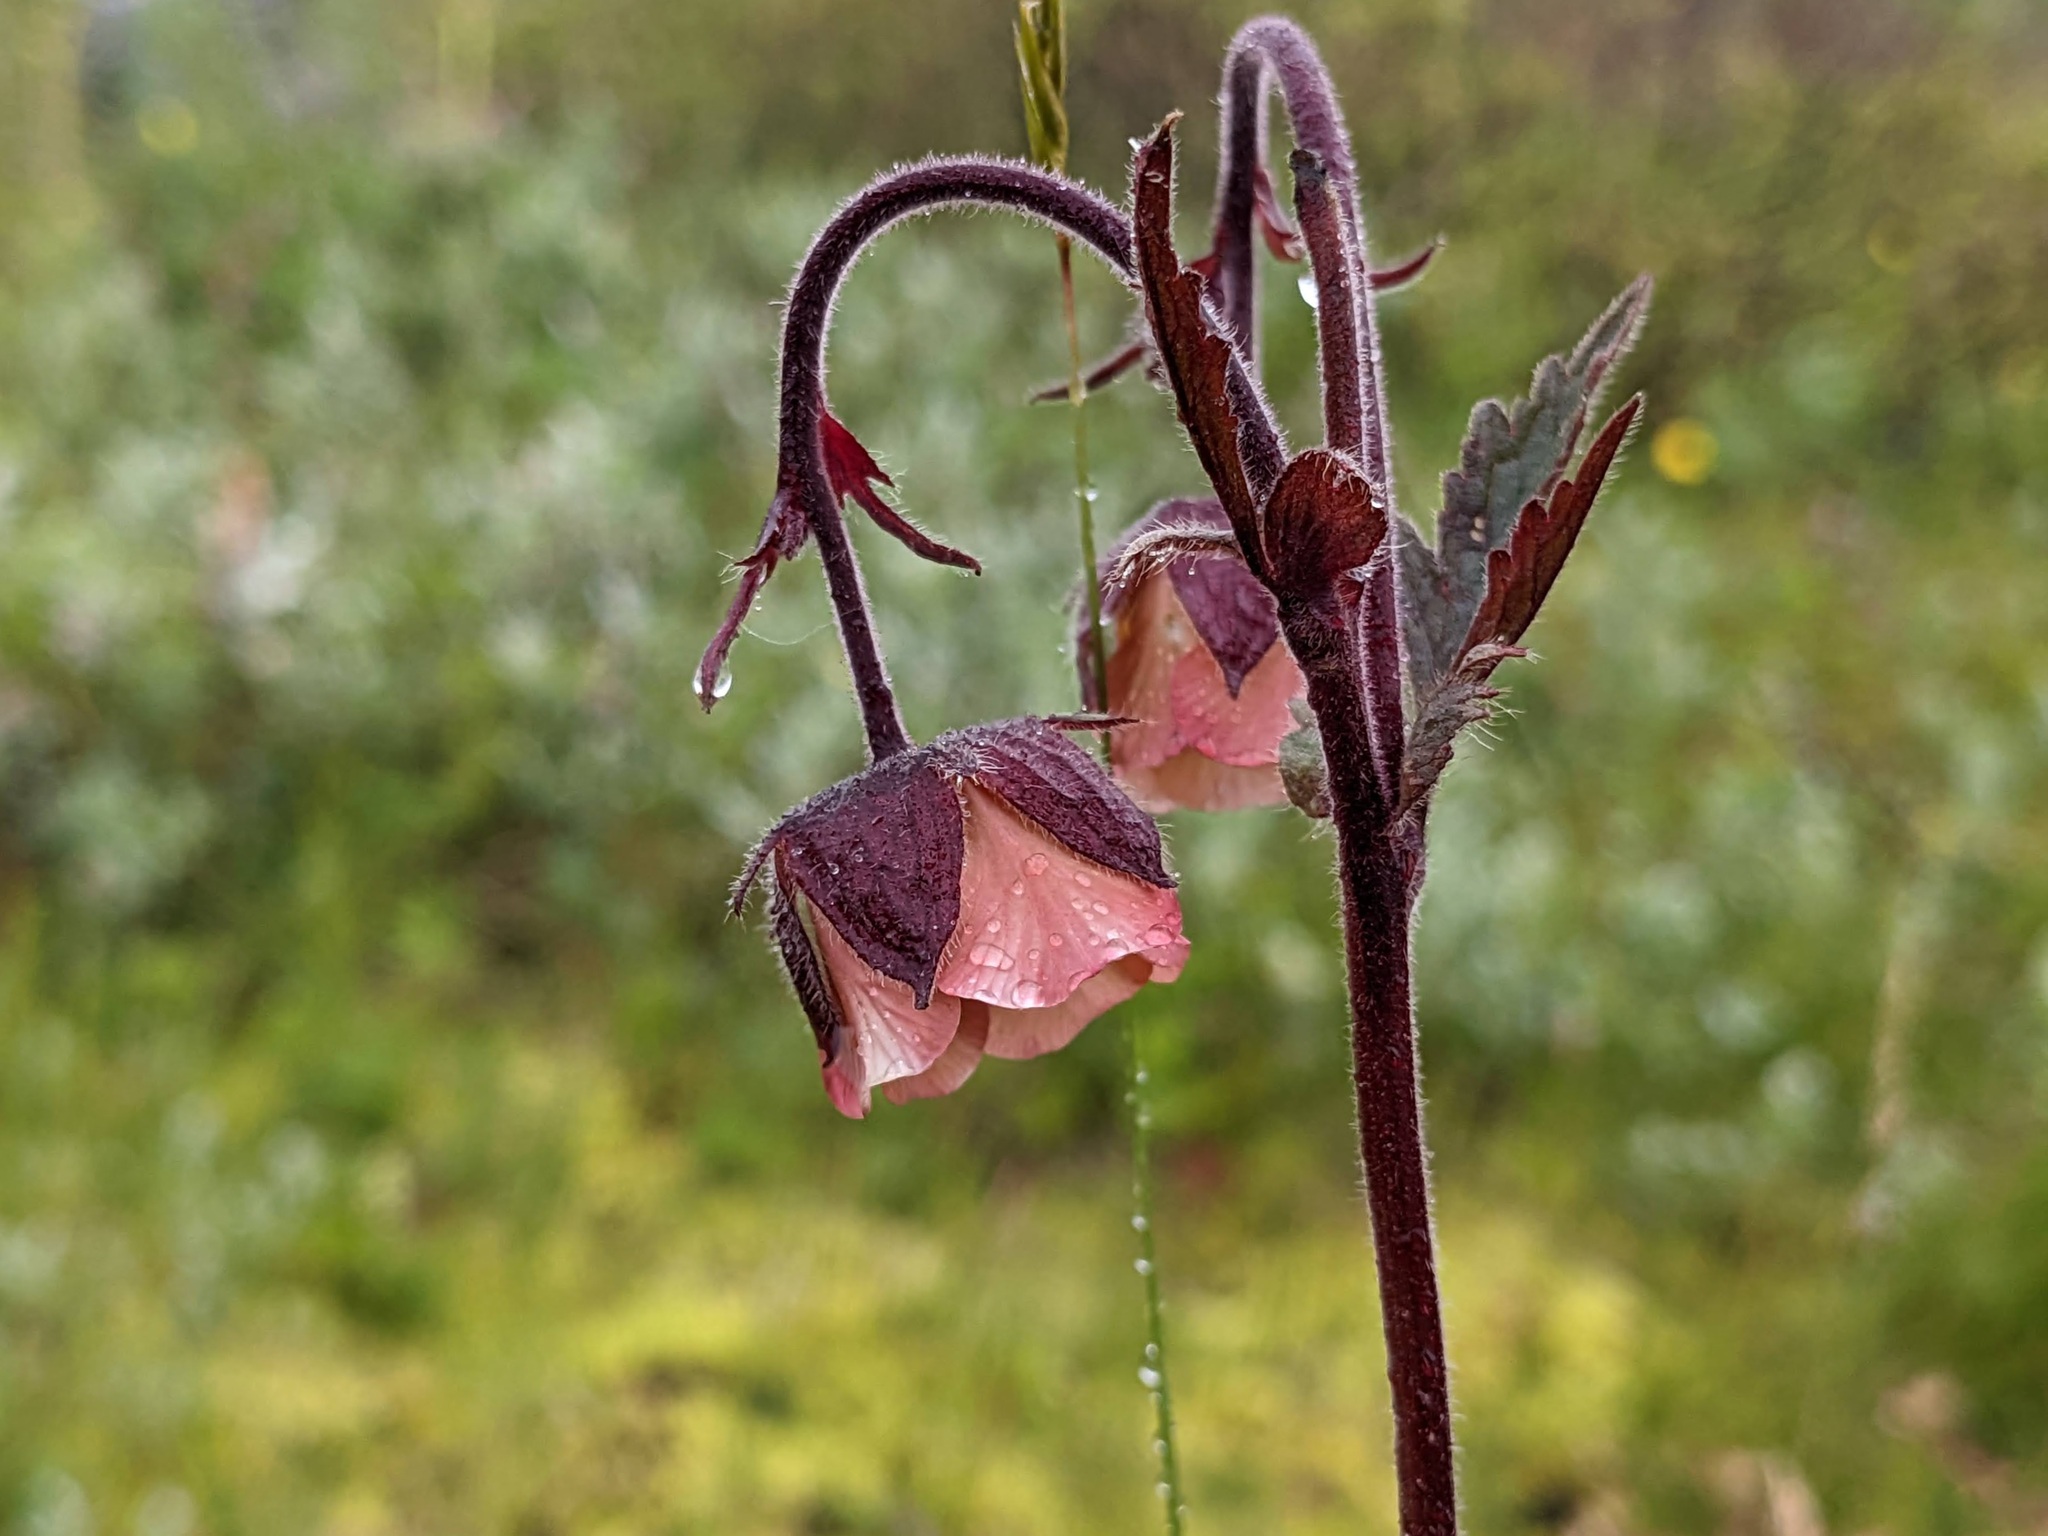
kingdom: Plantae
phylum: Tracheophyta
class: Magnoliopsida
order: Rosales
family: Rosaceae
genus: Geum
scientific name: Geum rivale
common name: Water avens
